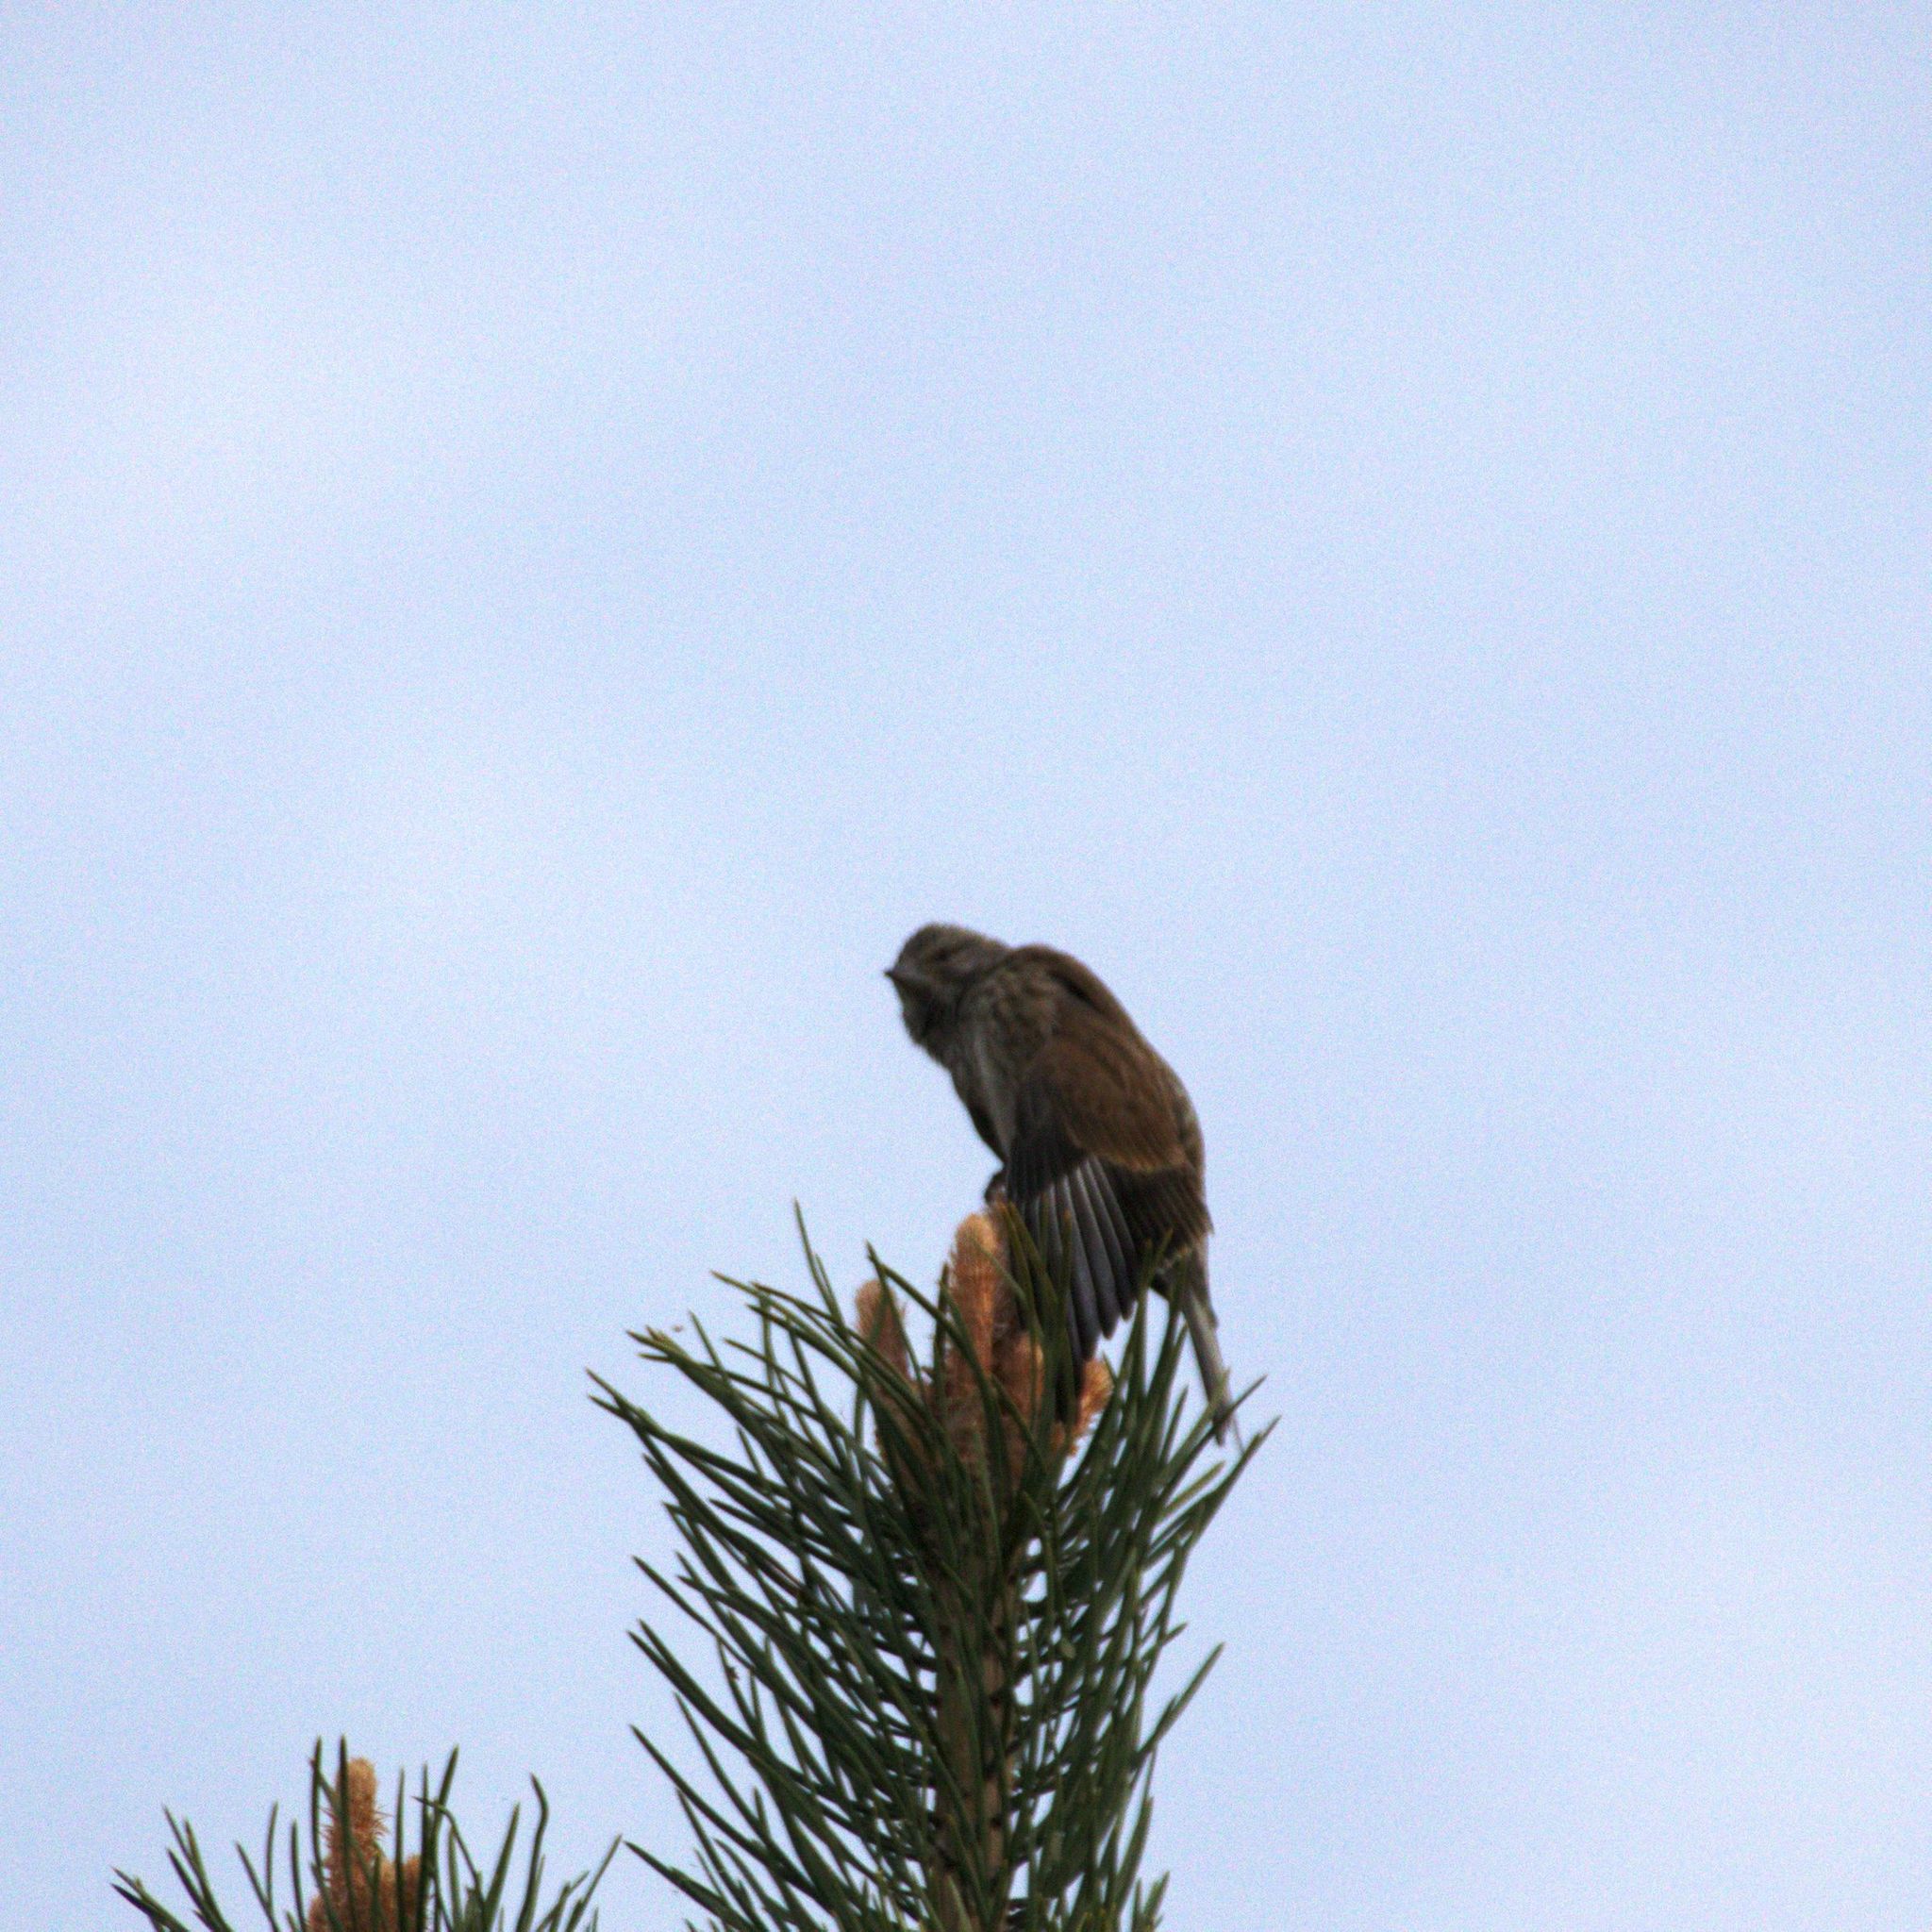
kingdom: Animalia
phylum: Chordata
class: Aves
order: Passeriformes
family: Fringillidae
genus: Linaria
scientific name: Linaria cannabina
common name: Common linnet
